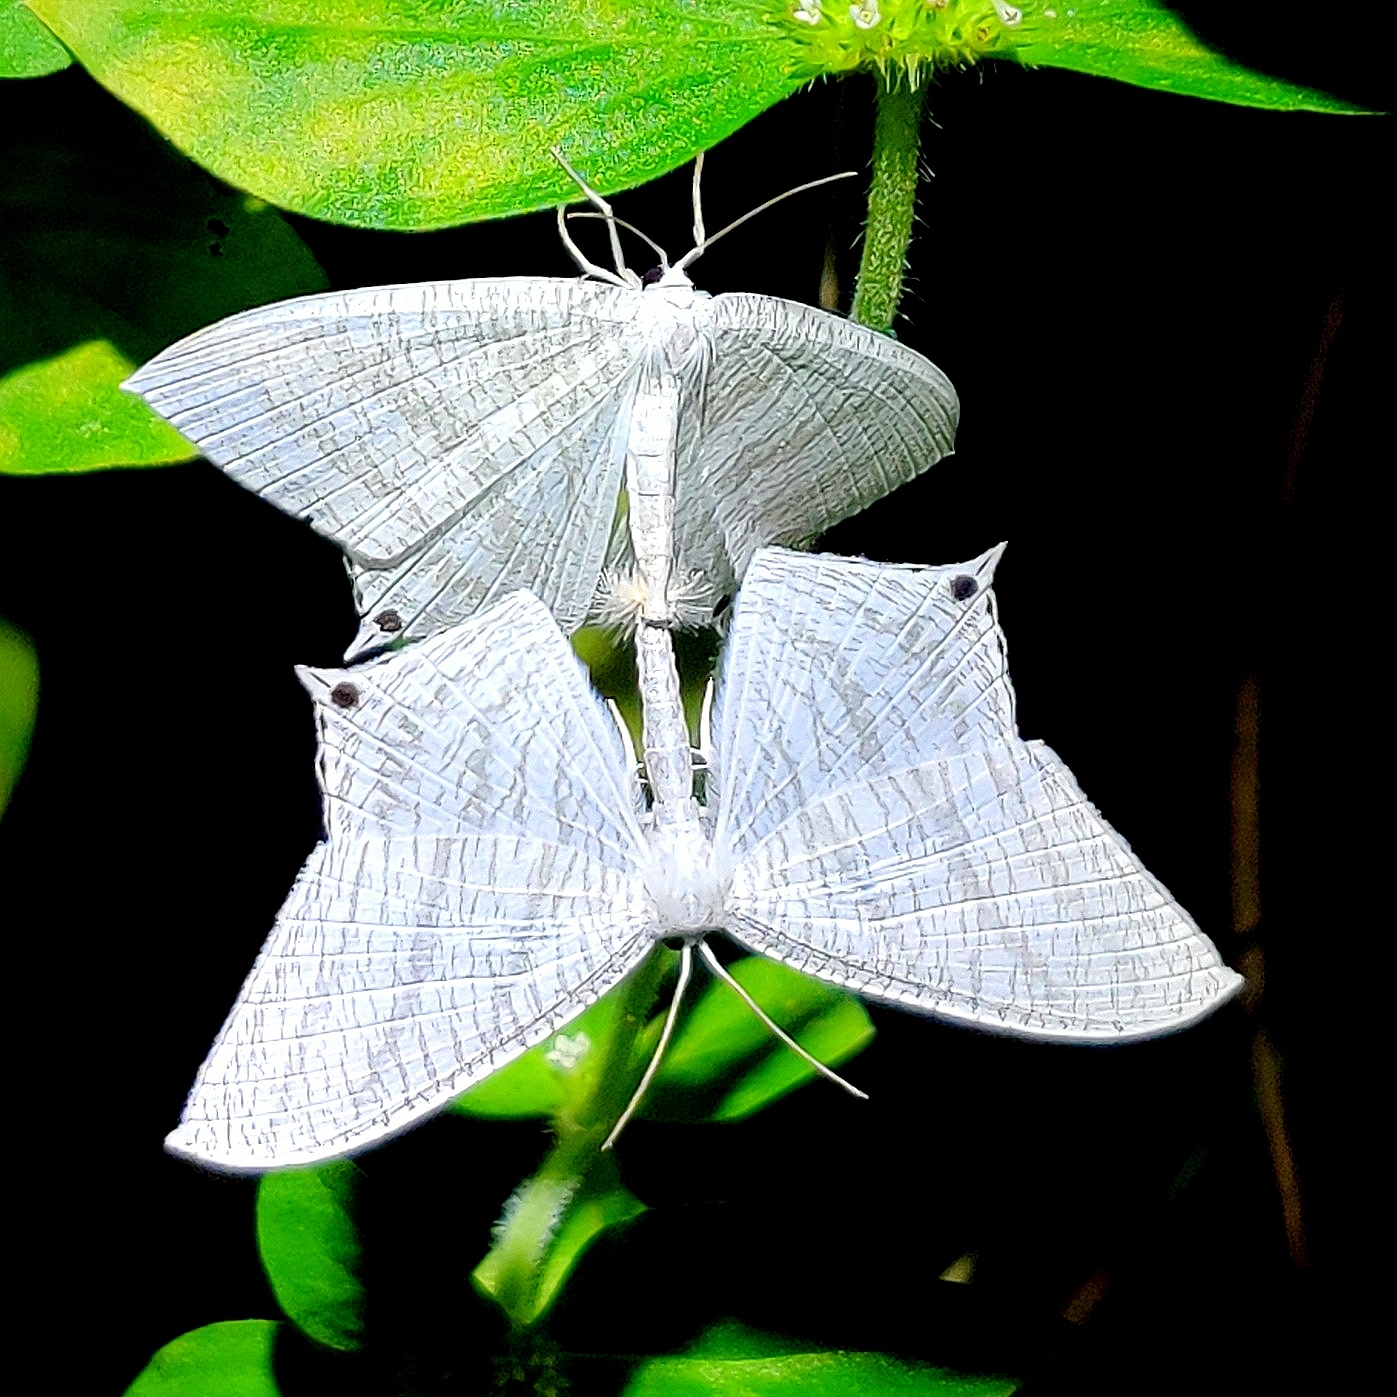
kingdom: Animalia
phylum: Arthropoda
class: Insecta
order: Lepidoptera
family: Uraniidae
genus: Micronia
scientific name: Micronia aculeata
